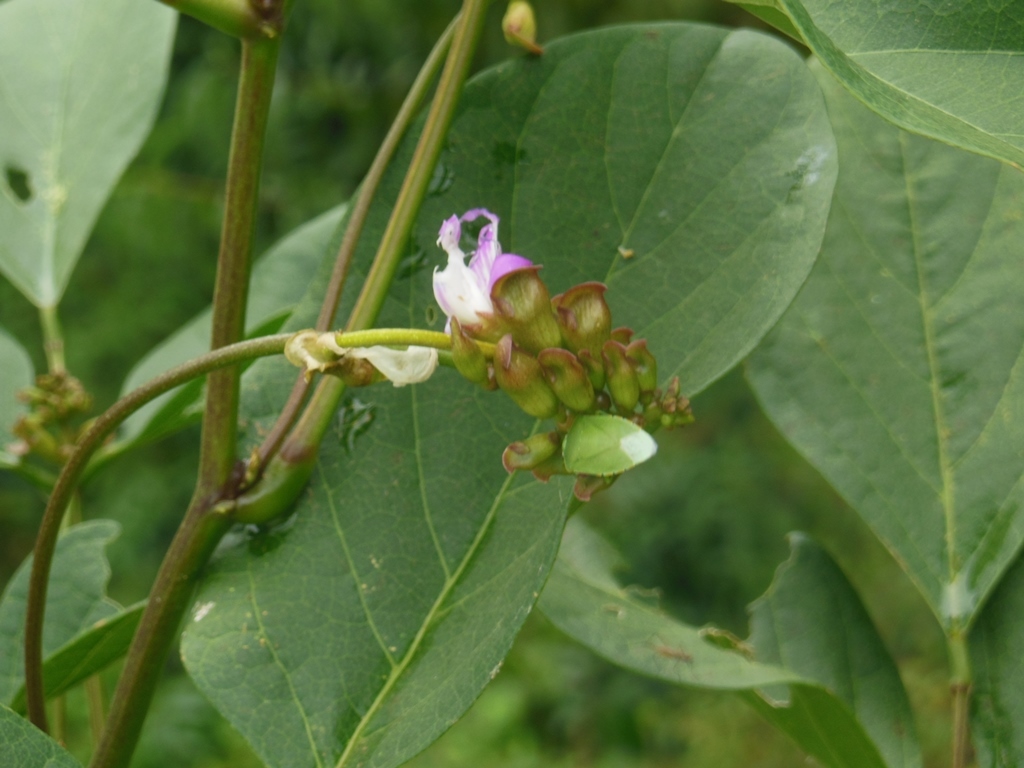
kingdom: Plantae
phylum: Tracheophyta
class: Magnoliopsida
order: Fabales
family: Fabaceae
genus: Canavalia
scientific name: Canavalia rosea
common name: Beach-bean
